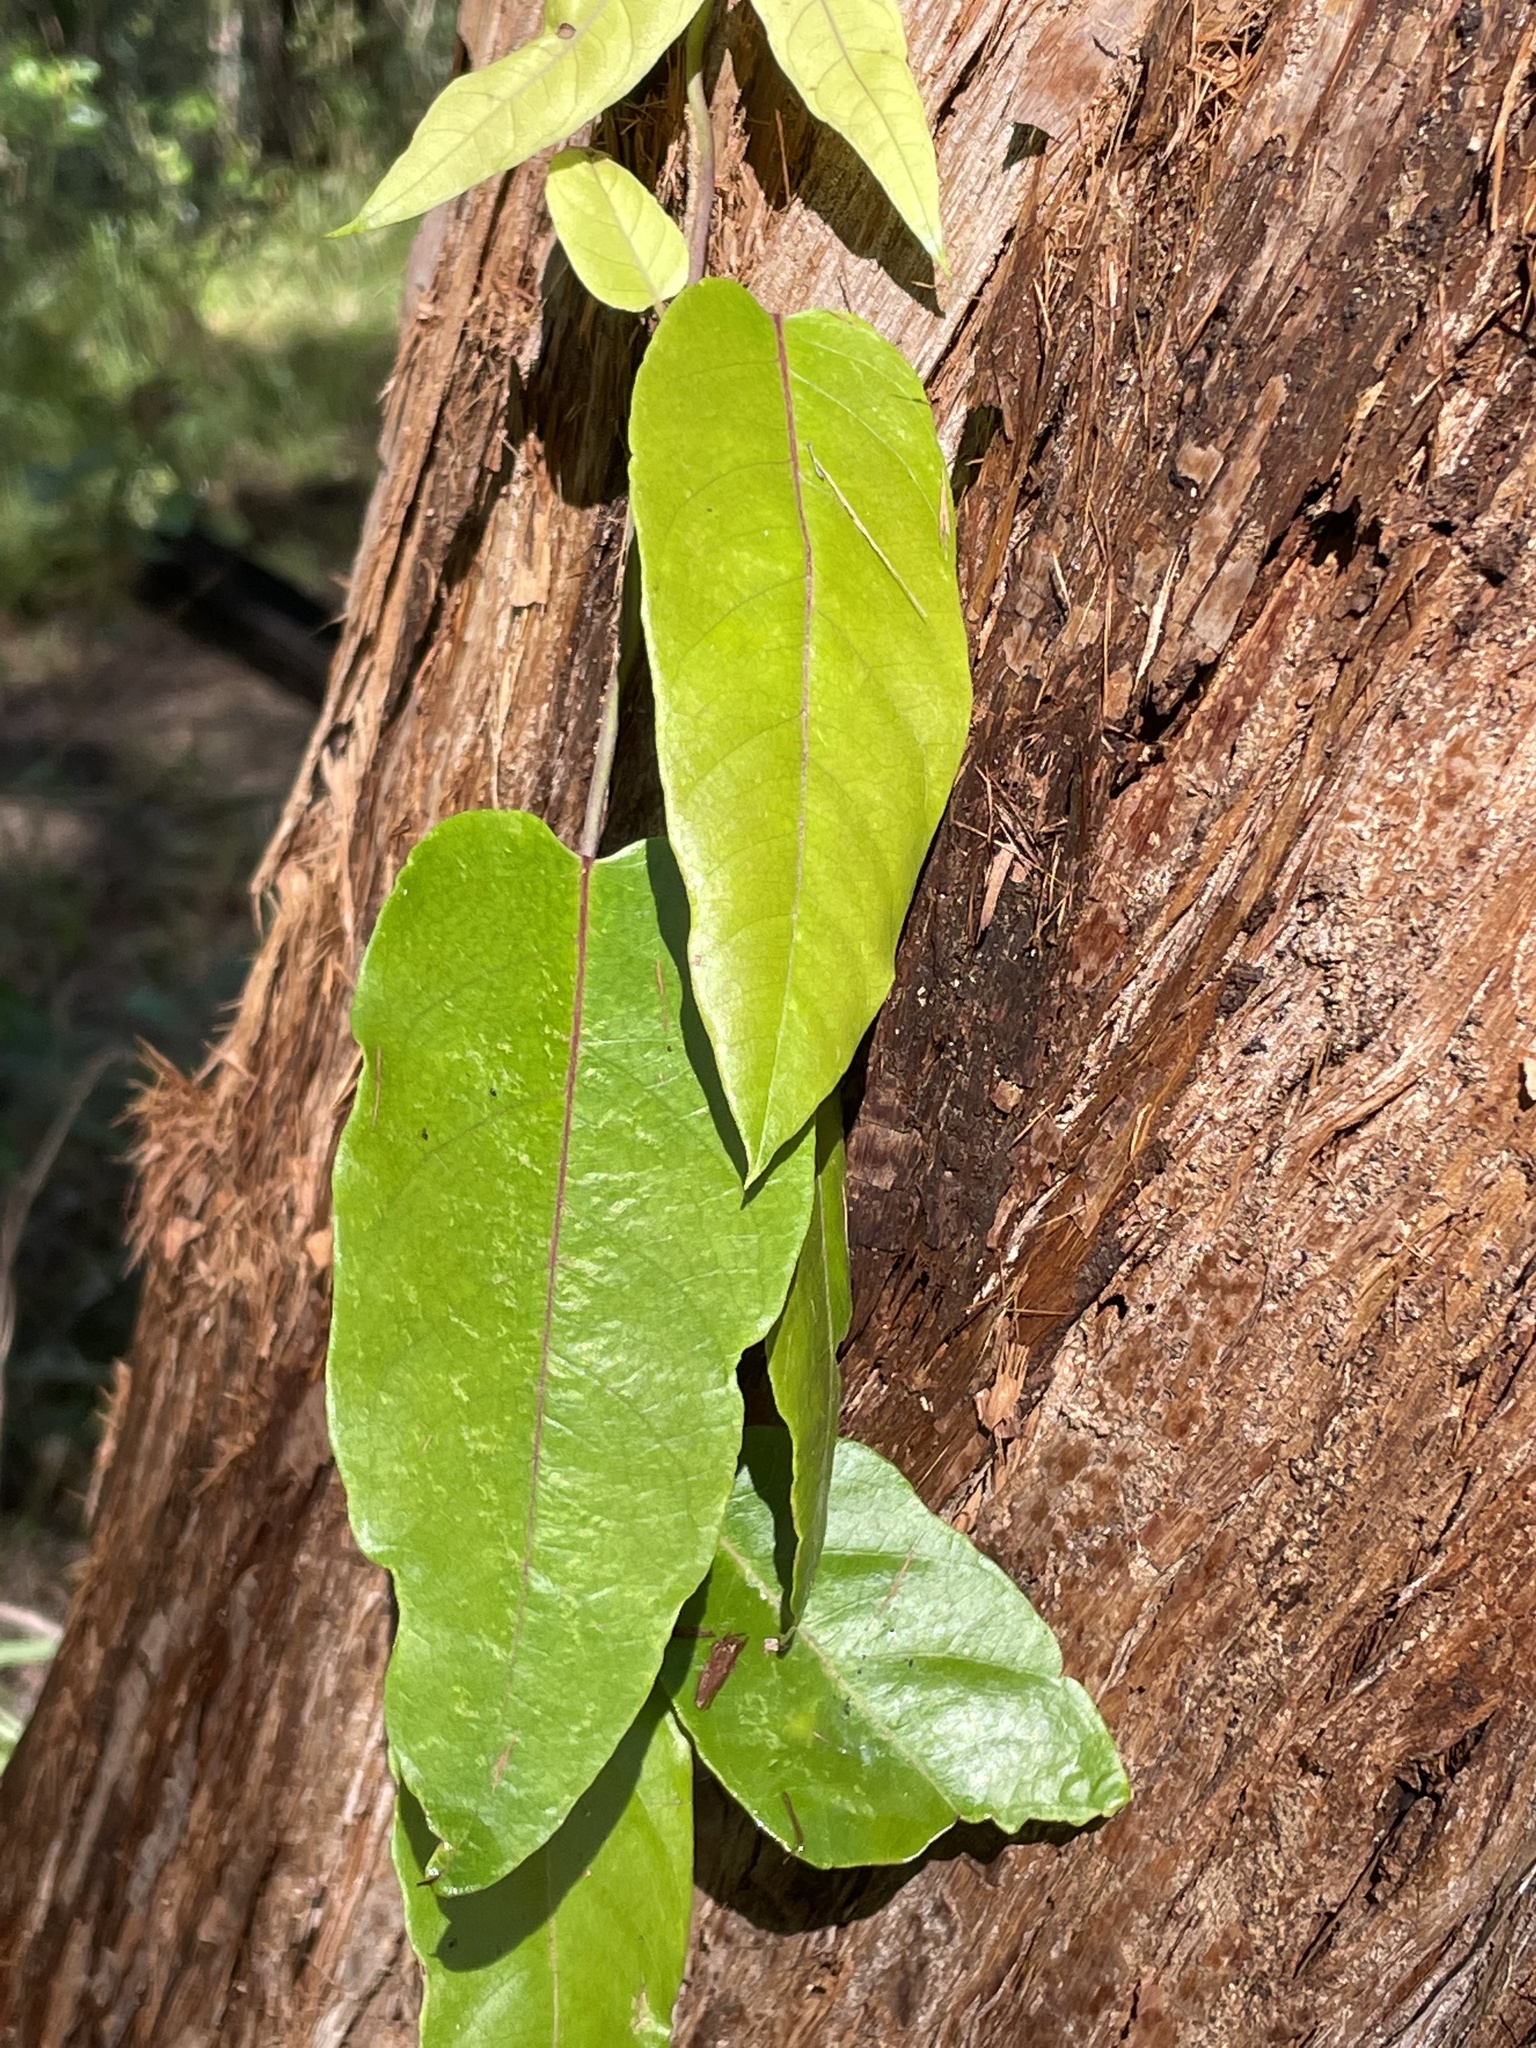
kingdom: Plantae
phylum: Tracheophyta
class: Magnoliopsida
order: Gentianales
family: Apocynaceae
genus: Parsonsia
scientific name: Parsonsia straminea
